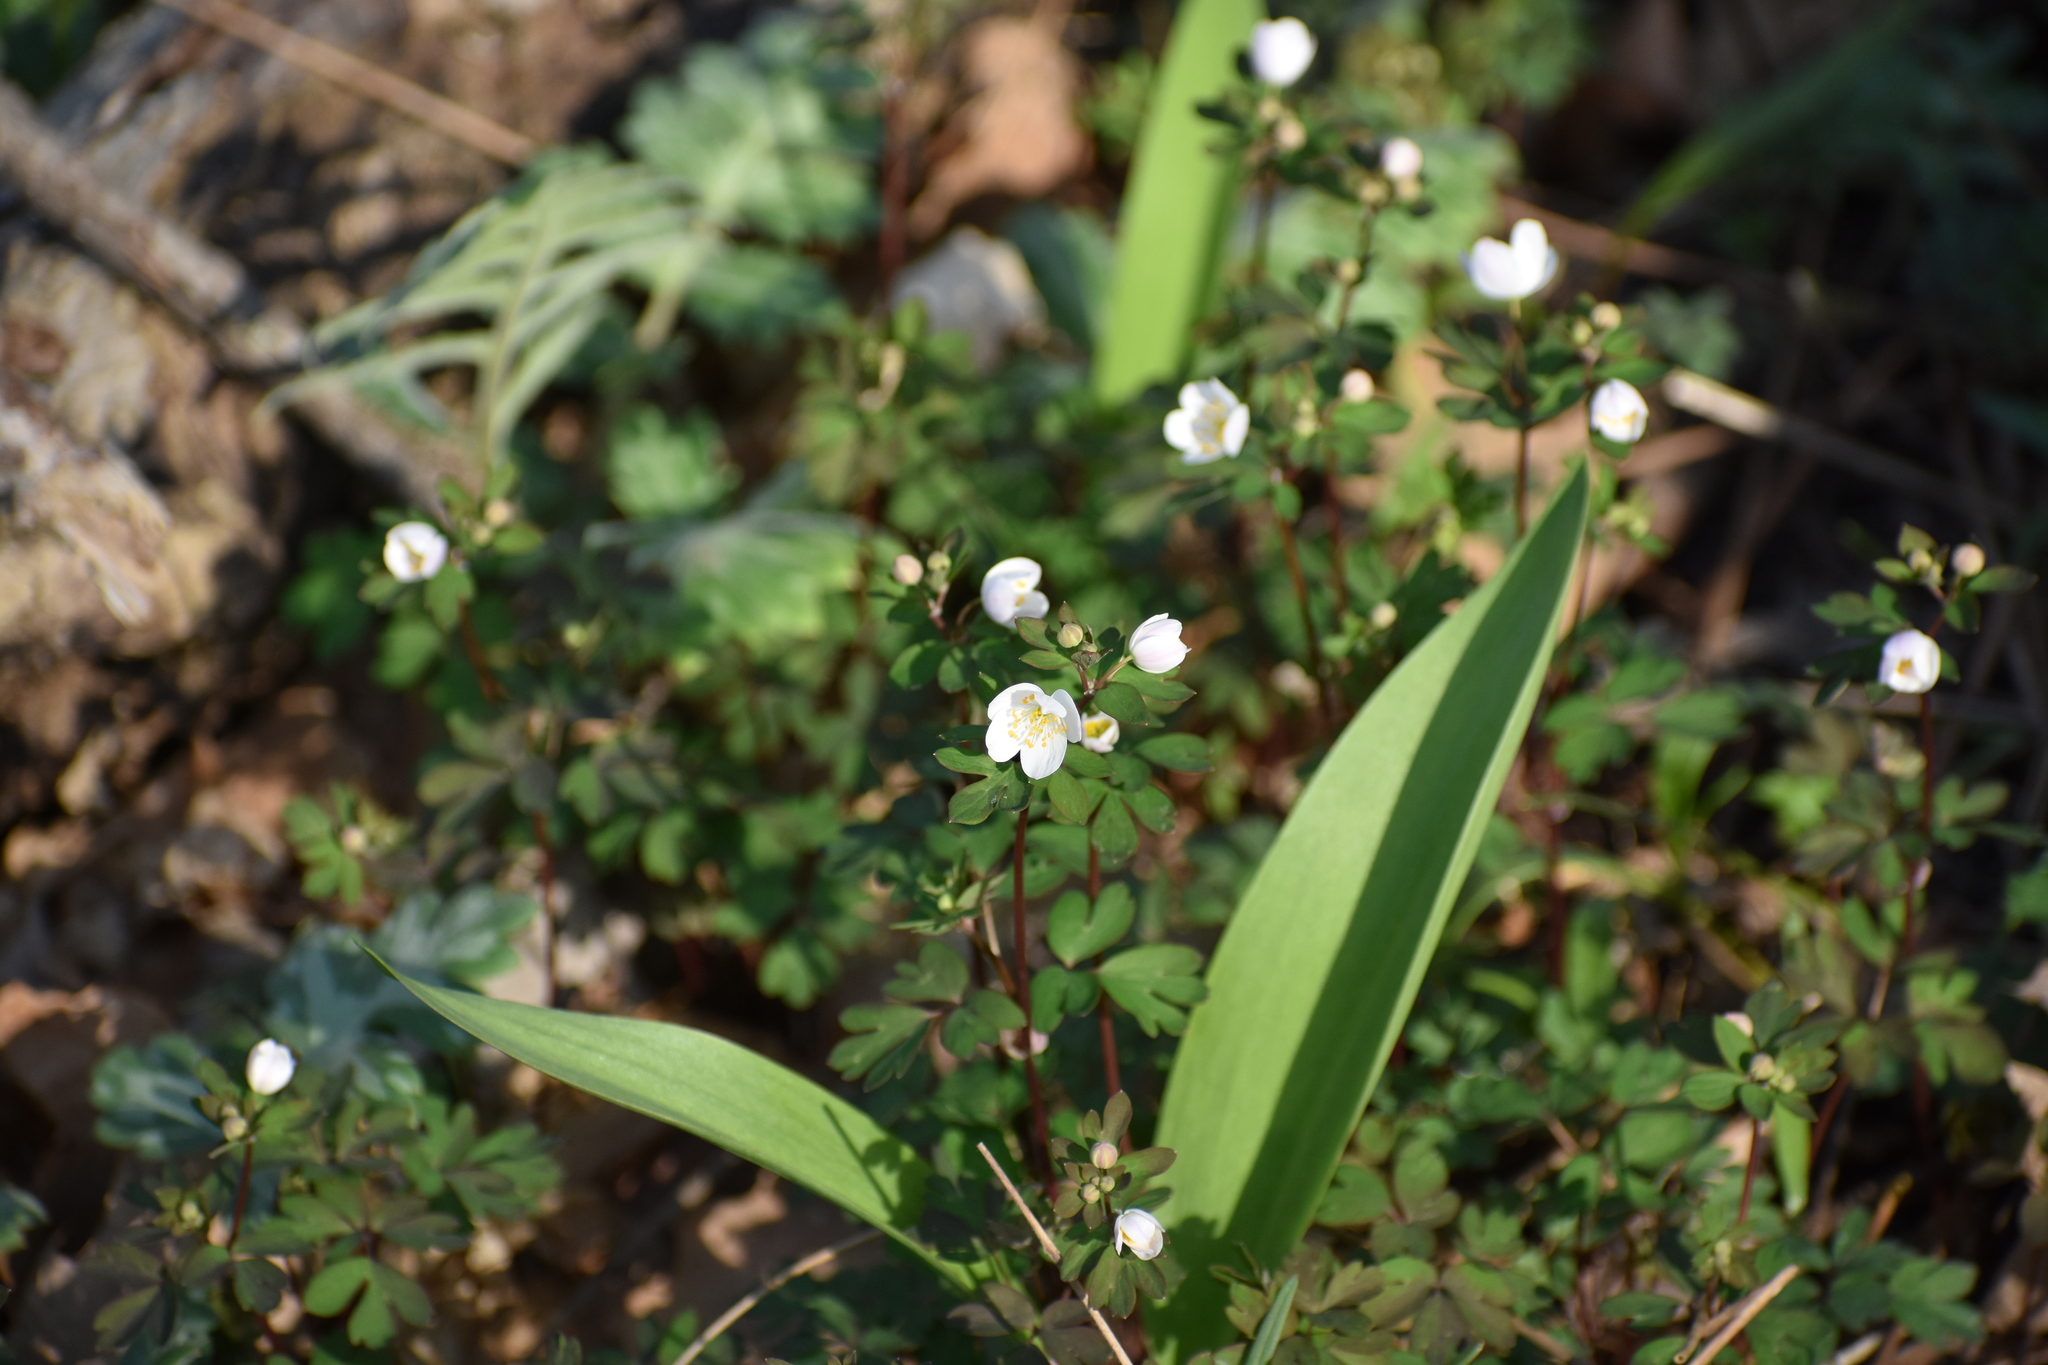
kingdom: Plantae
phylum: Tracheophyta
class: Magnoliopsida
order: Ranunculales
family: Ranunculaceae
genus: Enemion
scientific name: Enemion biternatum
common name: Eastern false rue-anemone
